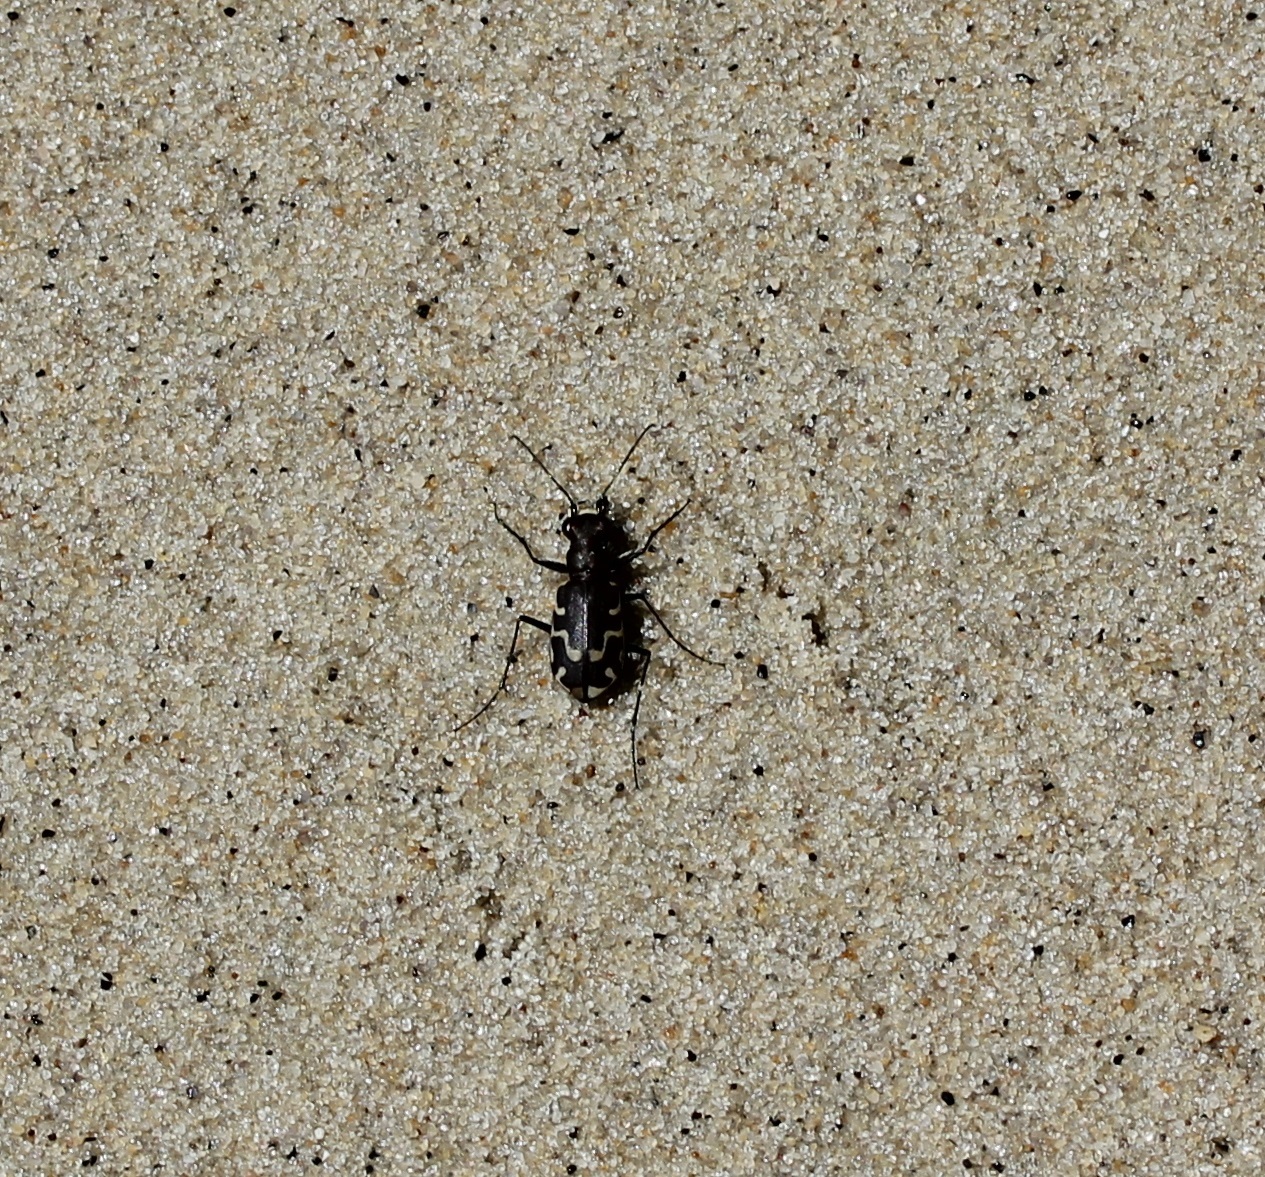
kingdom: Animalia
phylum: Arthropoda
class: Insecta
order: Coleoptera
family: Carabidae
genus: Cicindela
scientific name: Cicindela repanda
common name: Bronzed tiger beetle
